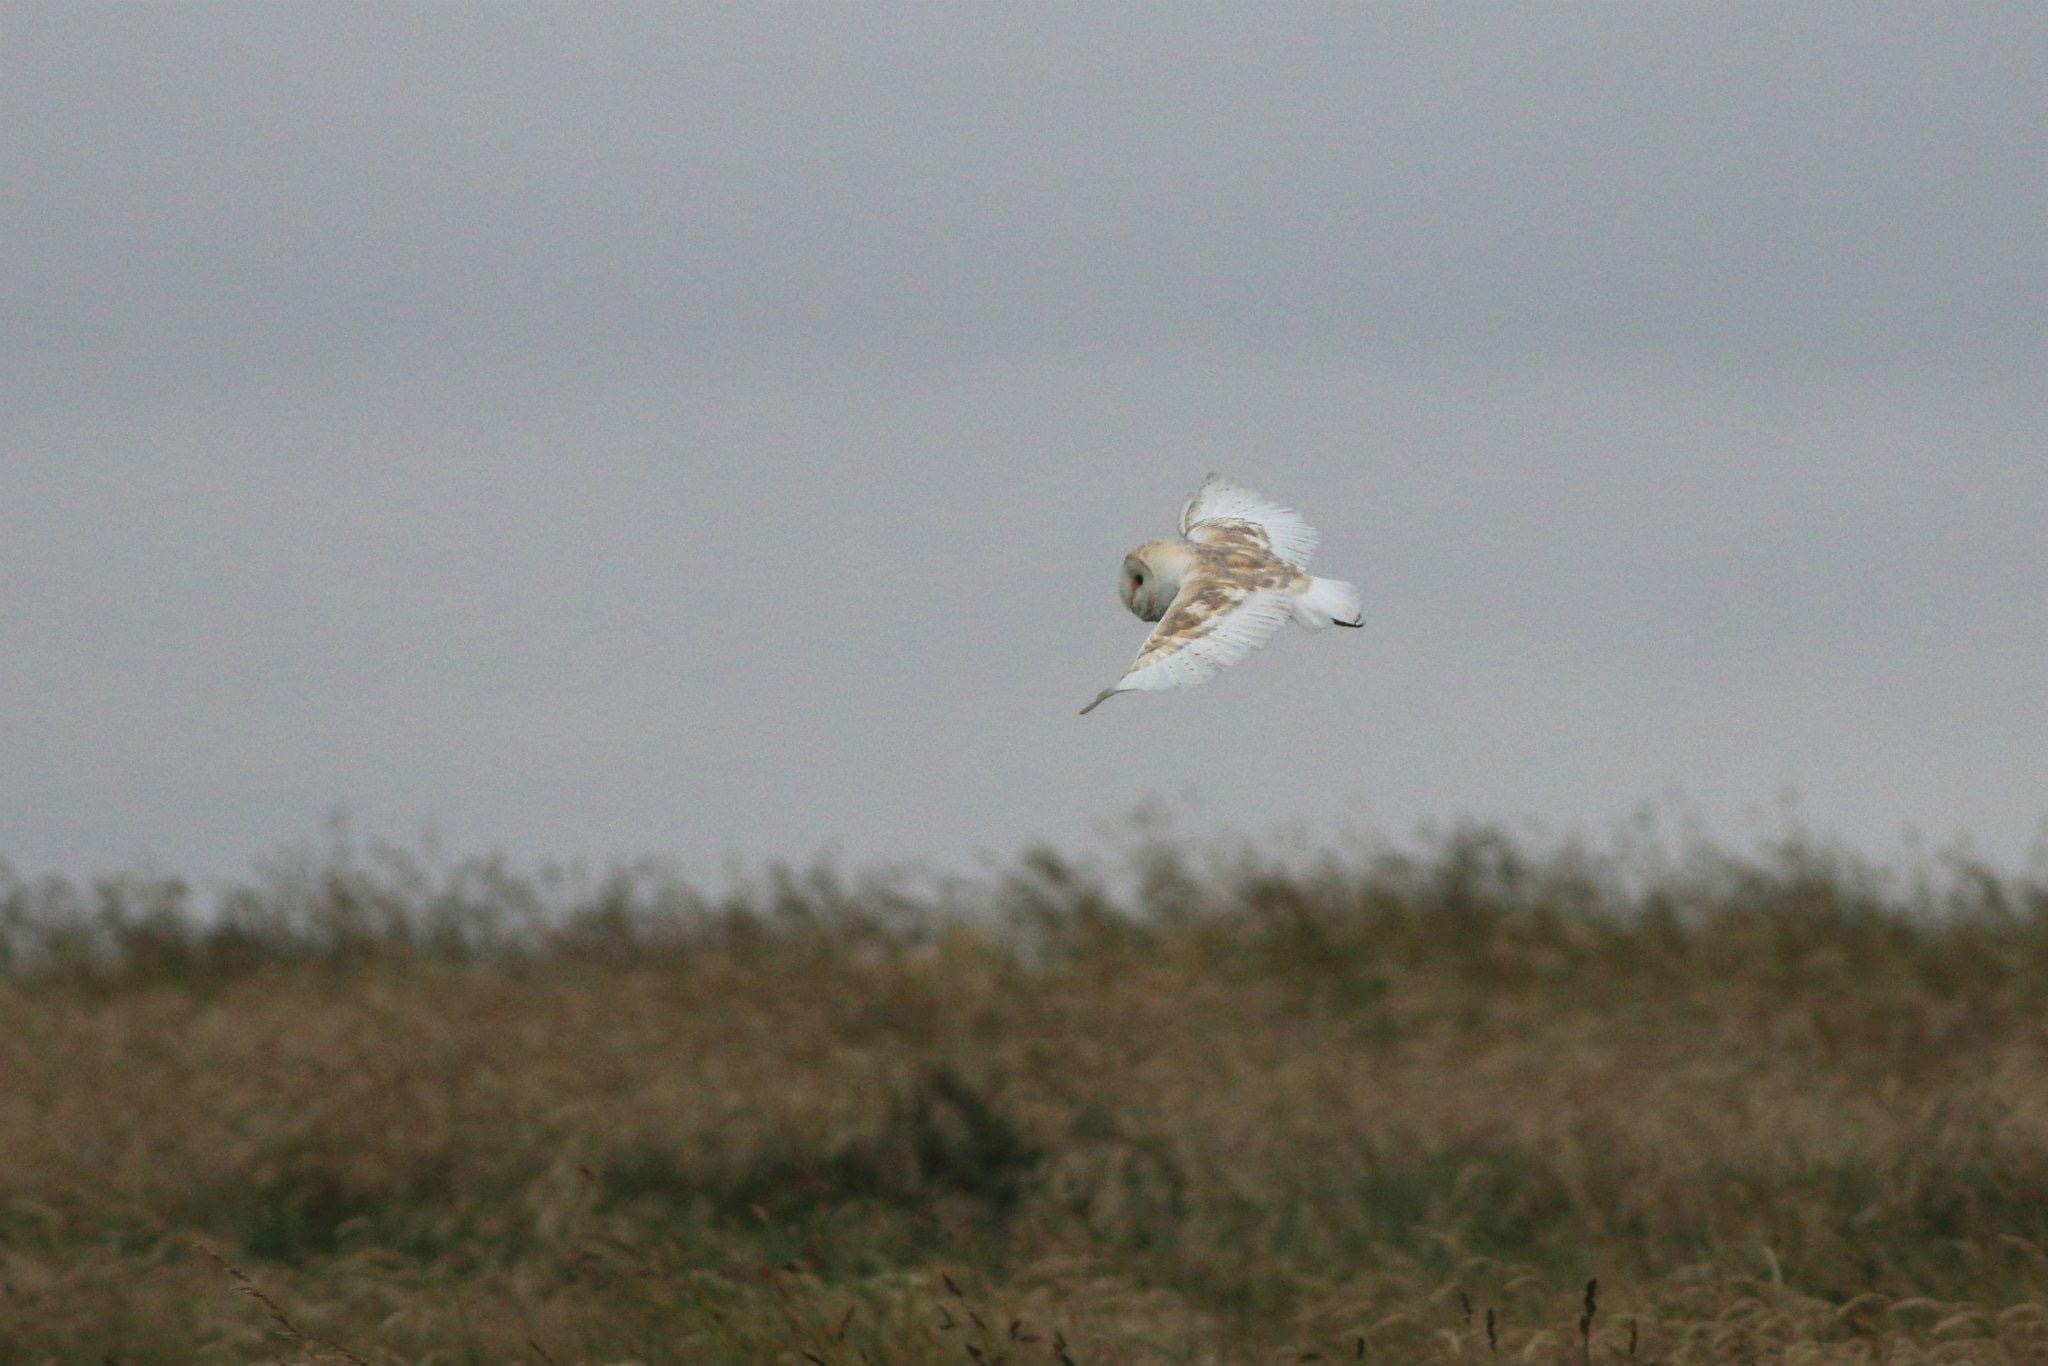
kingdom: Animalia
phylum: Chordata
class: Aves
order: Strigiformes
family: Tytonidae
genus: Tyto
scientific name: Tyto alba
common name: Barn owl
